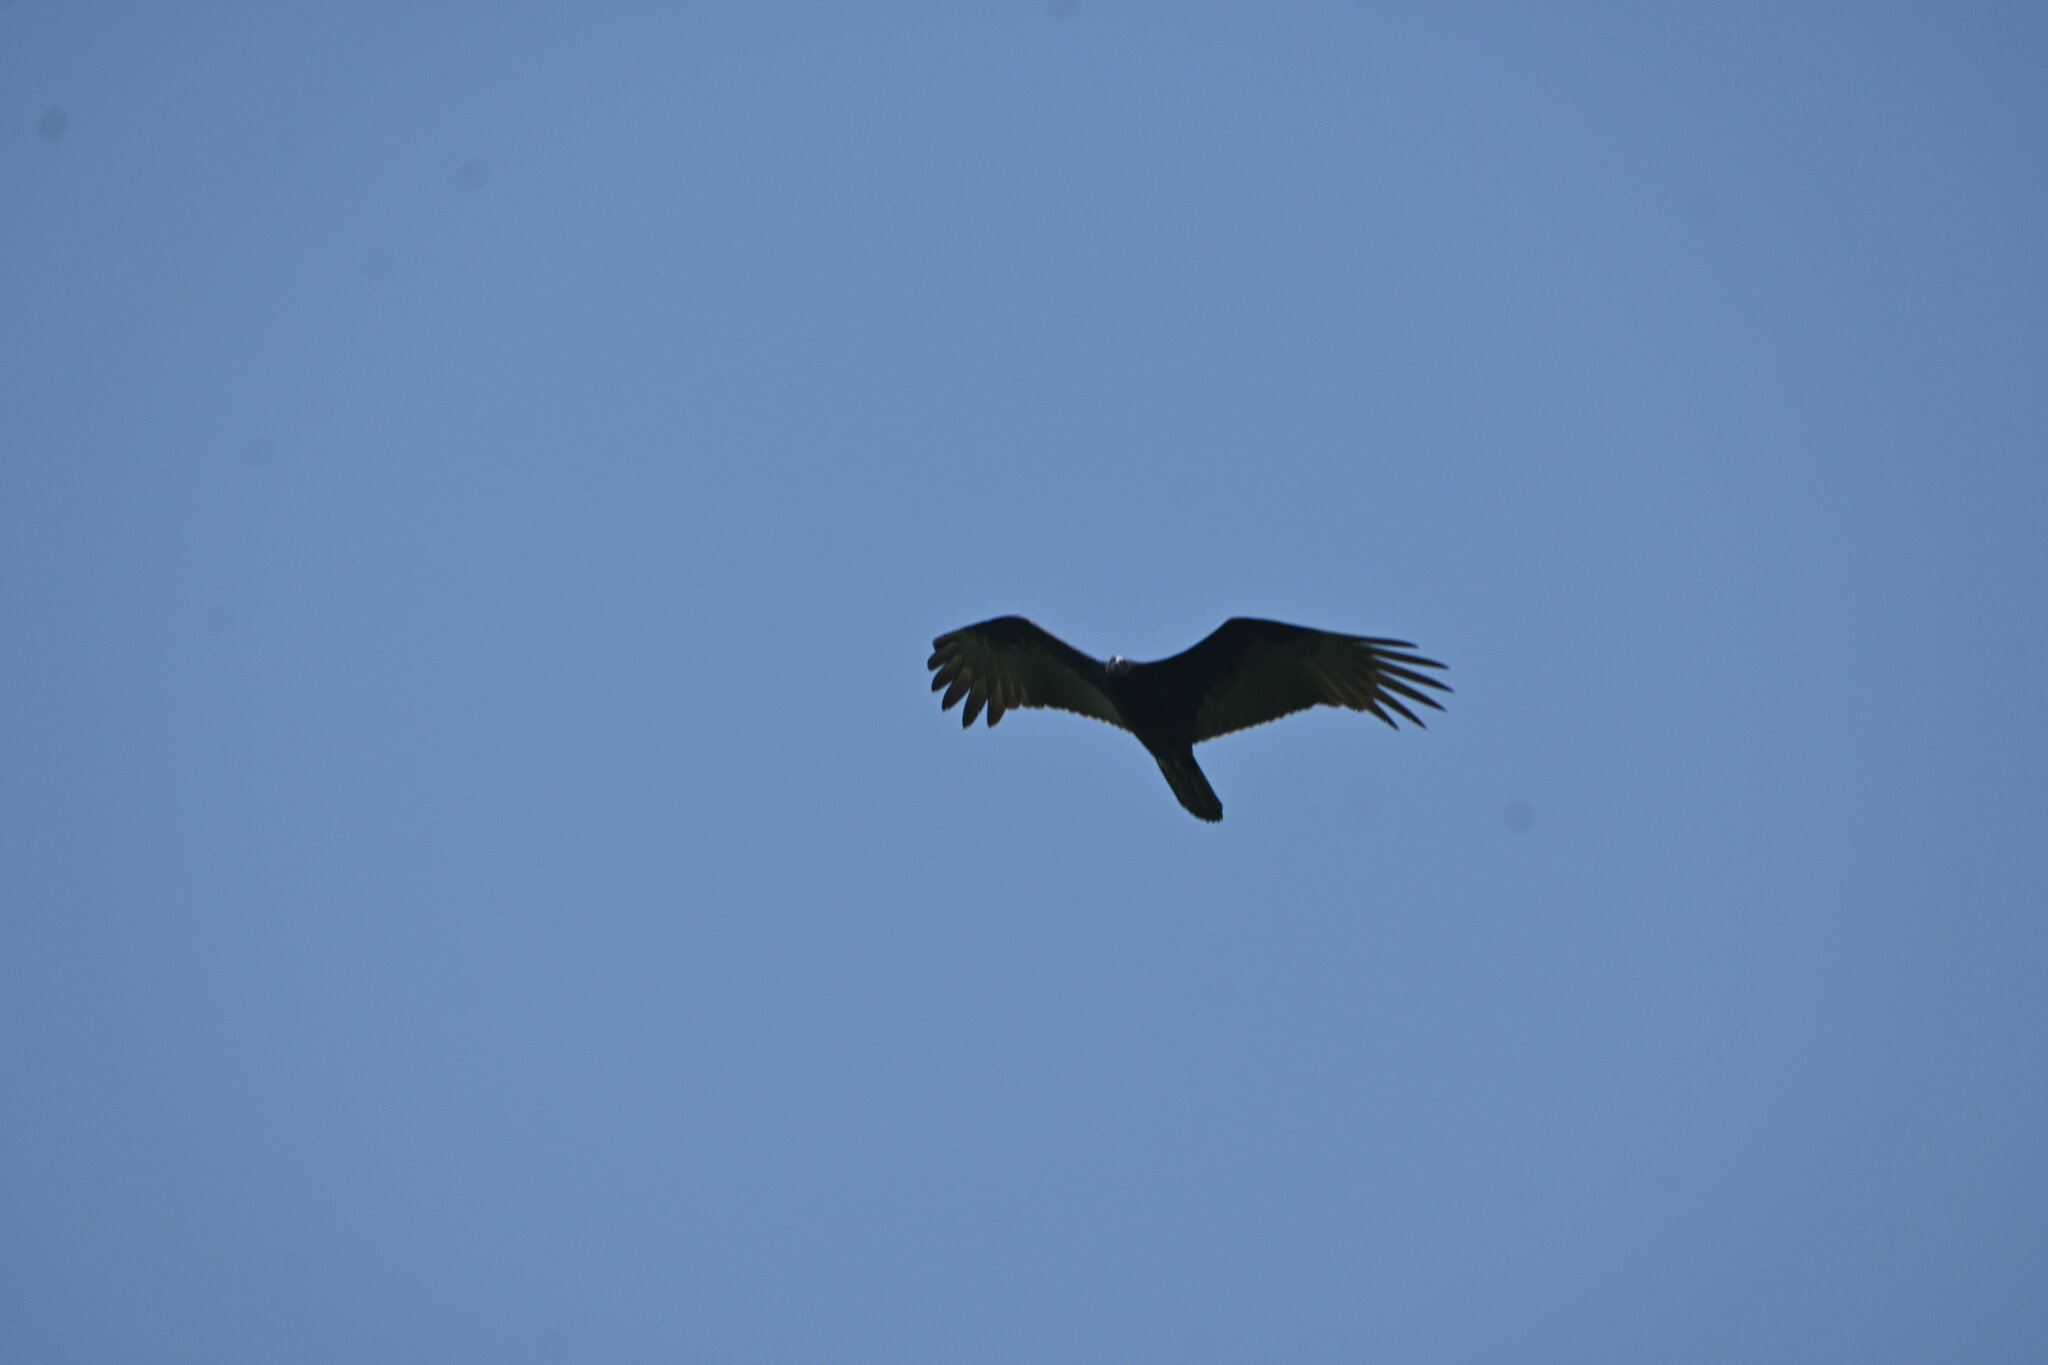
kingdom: Animalia
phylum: Chordata
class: Aves
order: Accipitriformes
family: Cathartidae
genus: Cathartes
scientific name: Cathartes aura
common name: Turkey vulture
